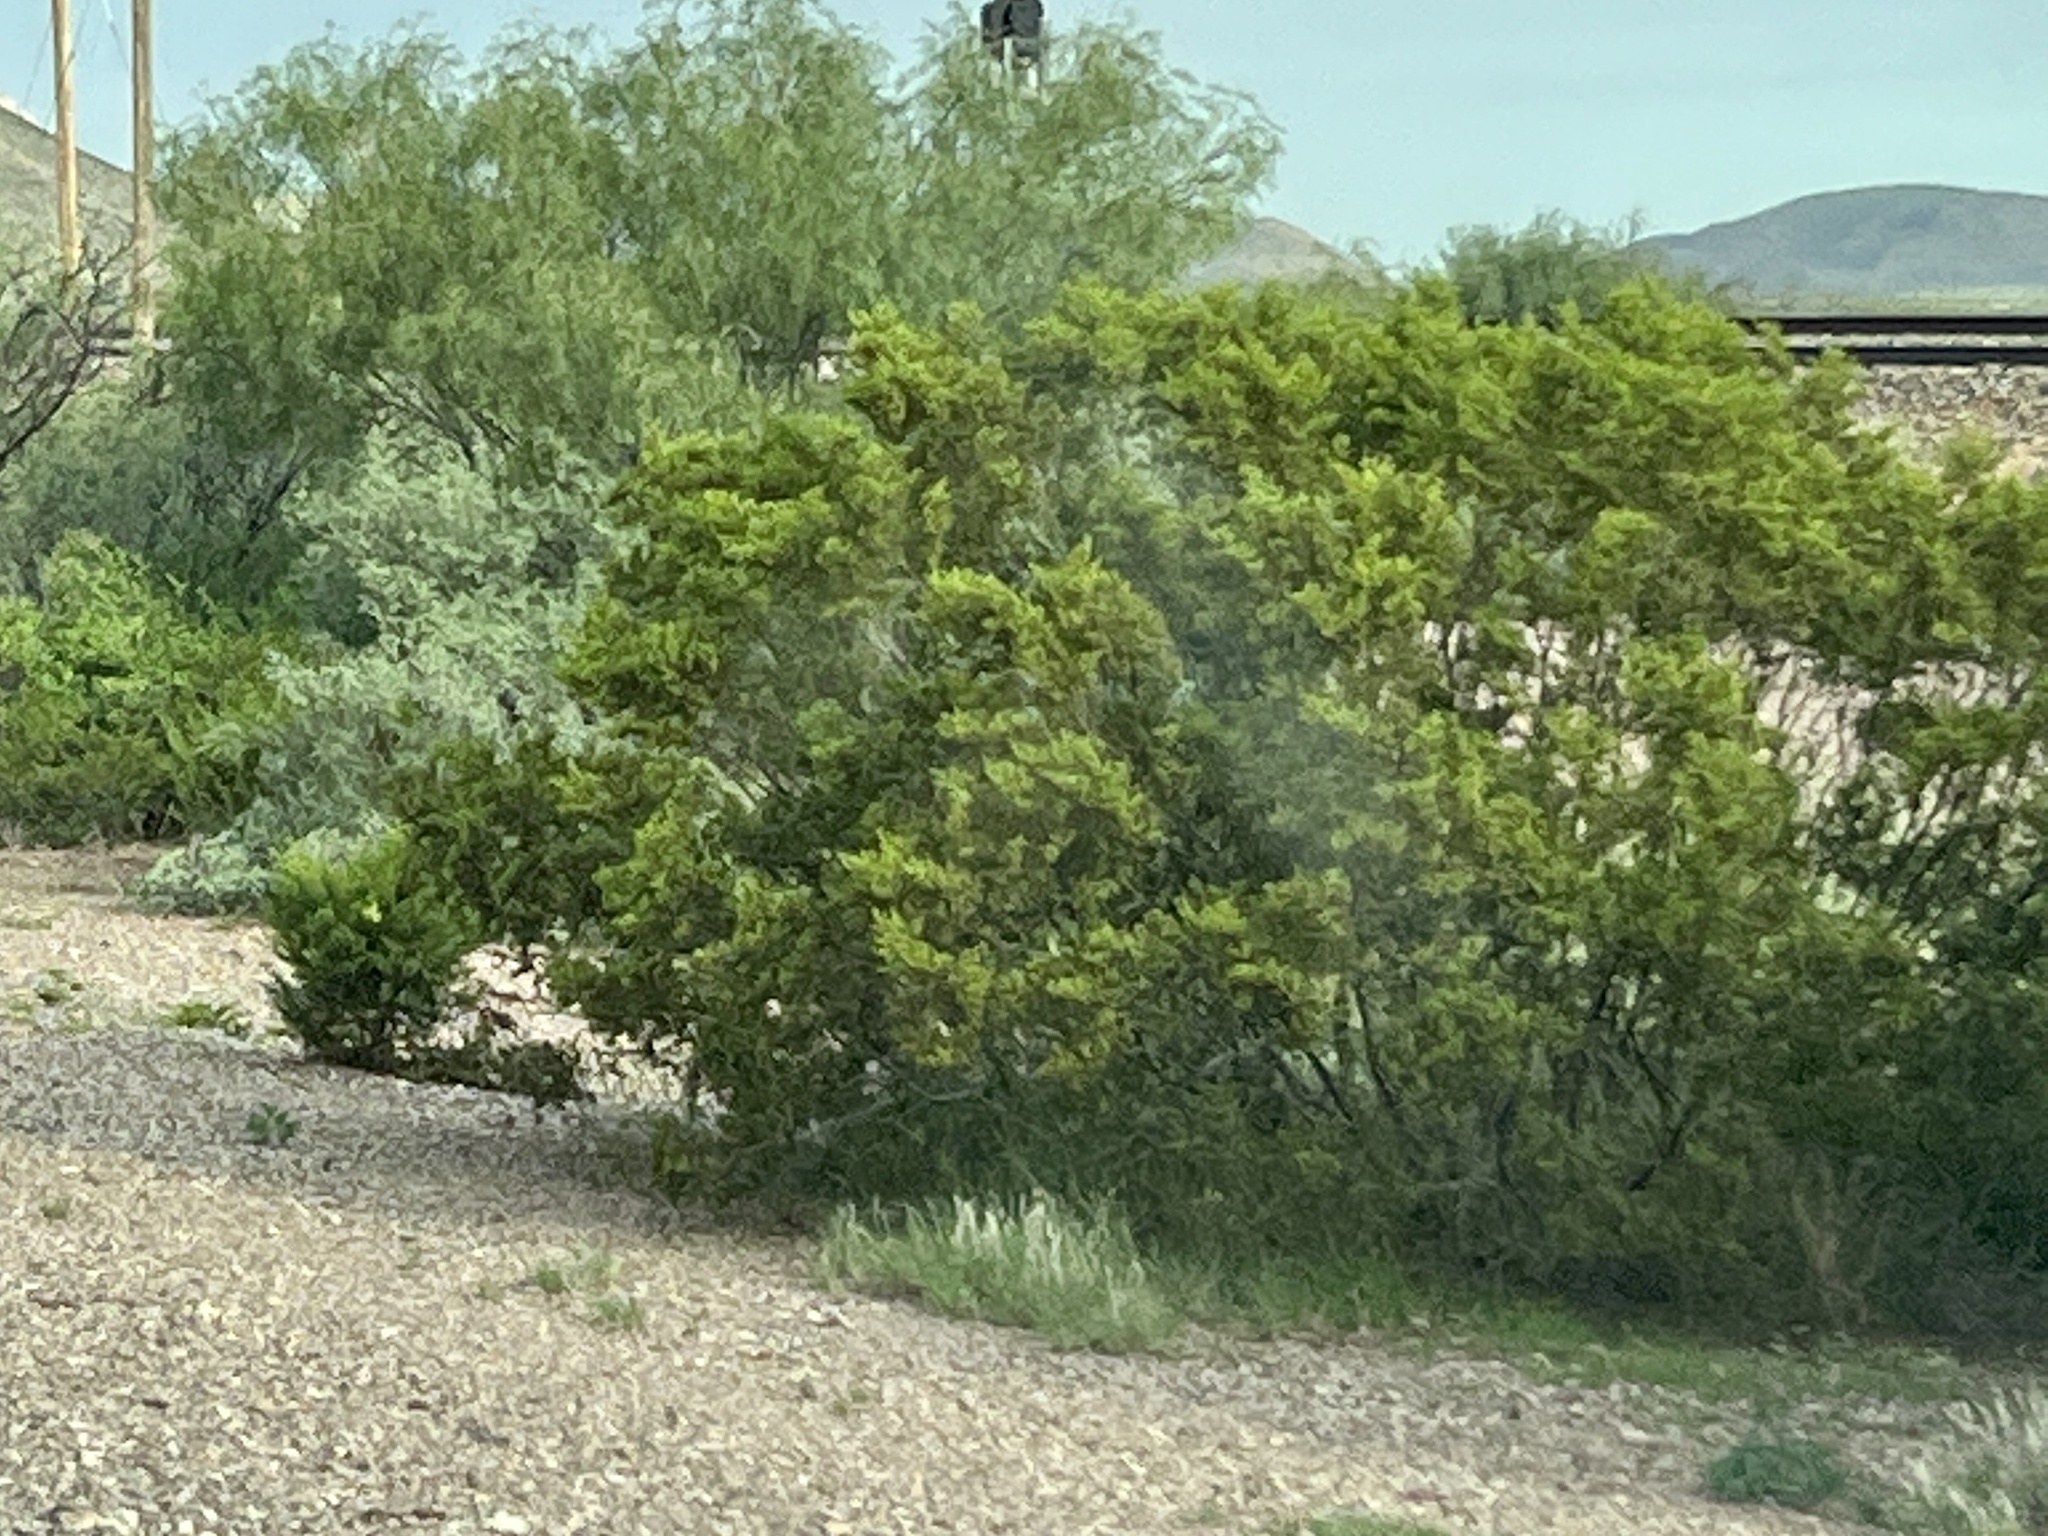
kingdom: Plantae
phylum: Tracheophyta
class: Magnoliopsida
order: Zygophyllales
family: Zygophyllaceae
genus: Larrea
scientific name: Larrea tridentata
